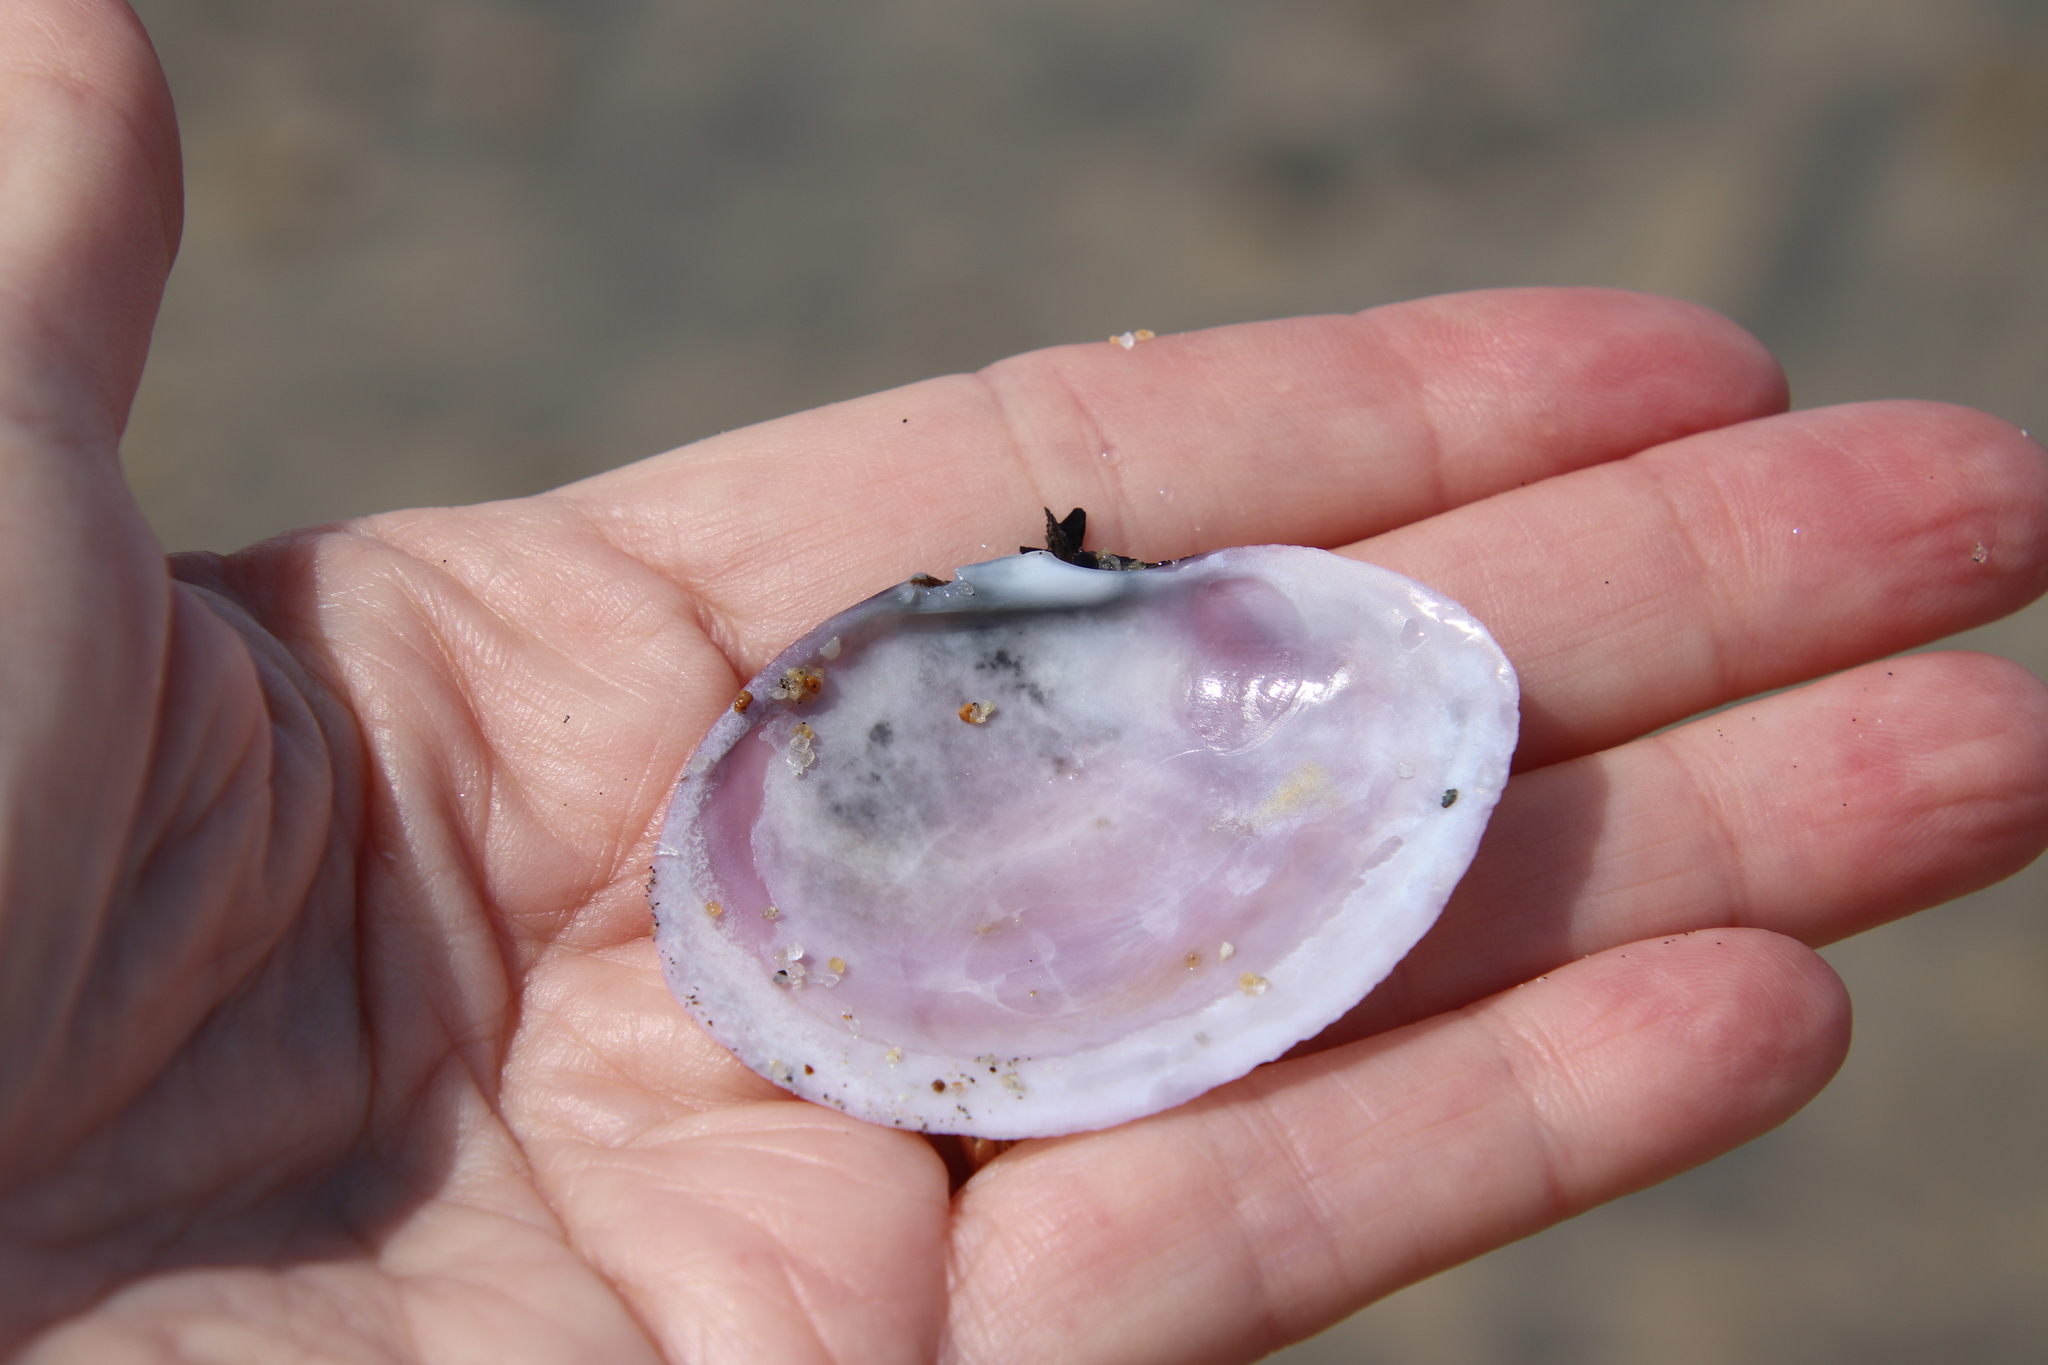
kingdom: Animalia
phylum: Mollusca
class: Bivalvia
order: Cardiida
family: Psammobiidae
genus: Nuttallia
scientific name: Nuttallia nuttallii
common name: California mahogany-clam
